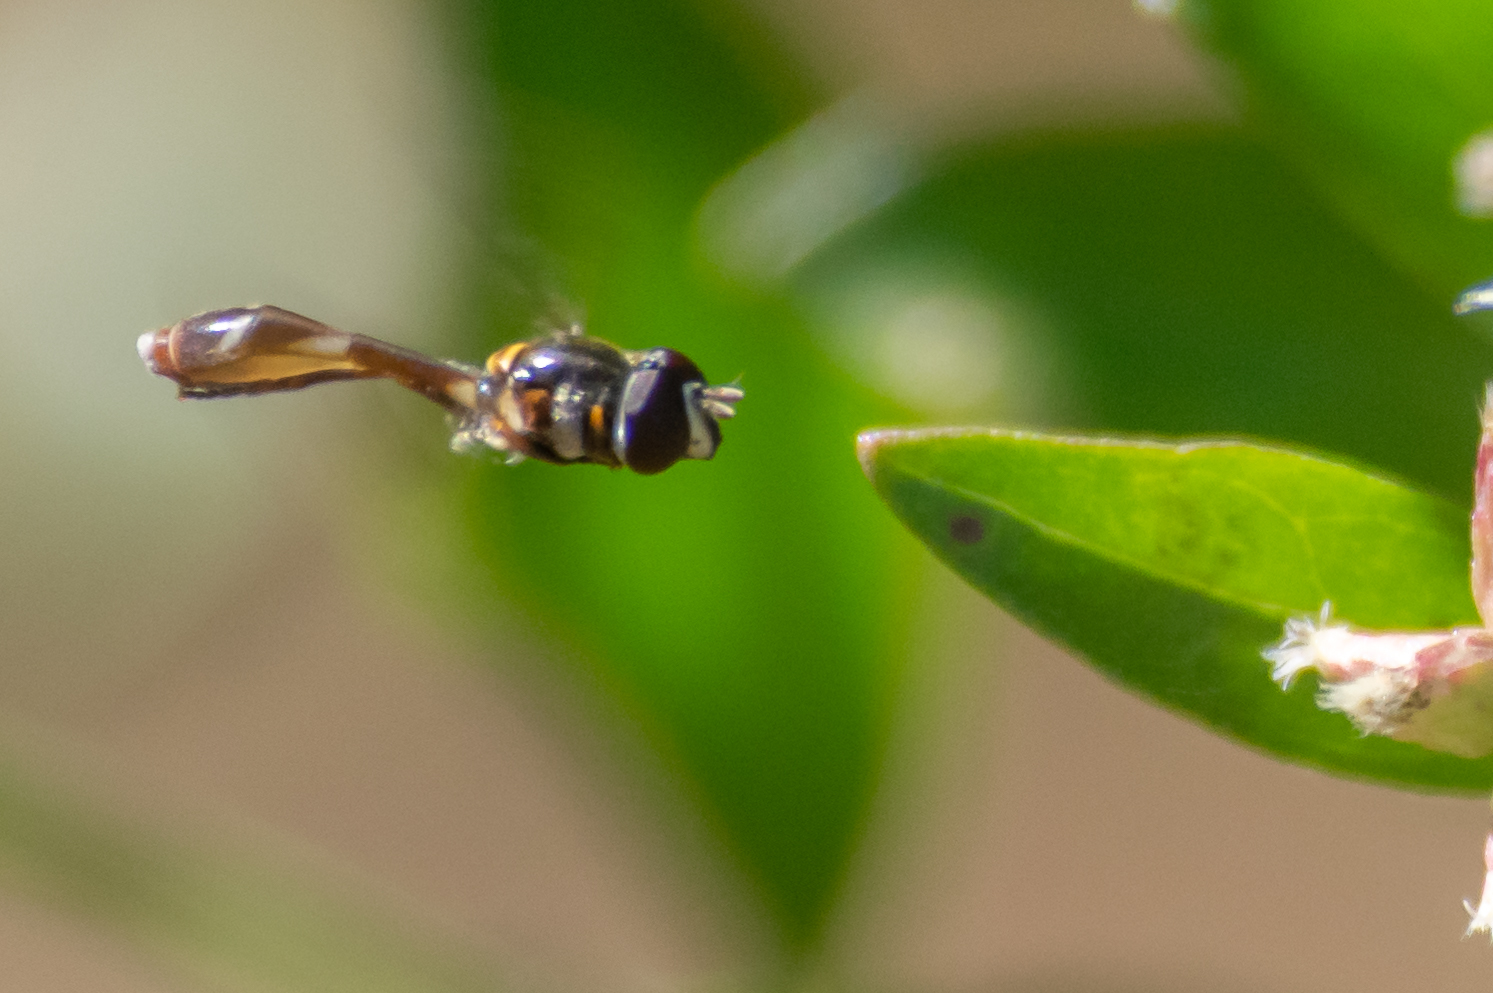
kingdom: Animalia
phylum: Arthropoda
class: Insecta
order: Diptera
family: Syrphidae
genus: Dioprosopa
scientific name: Dioprosopa clavatus
